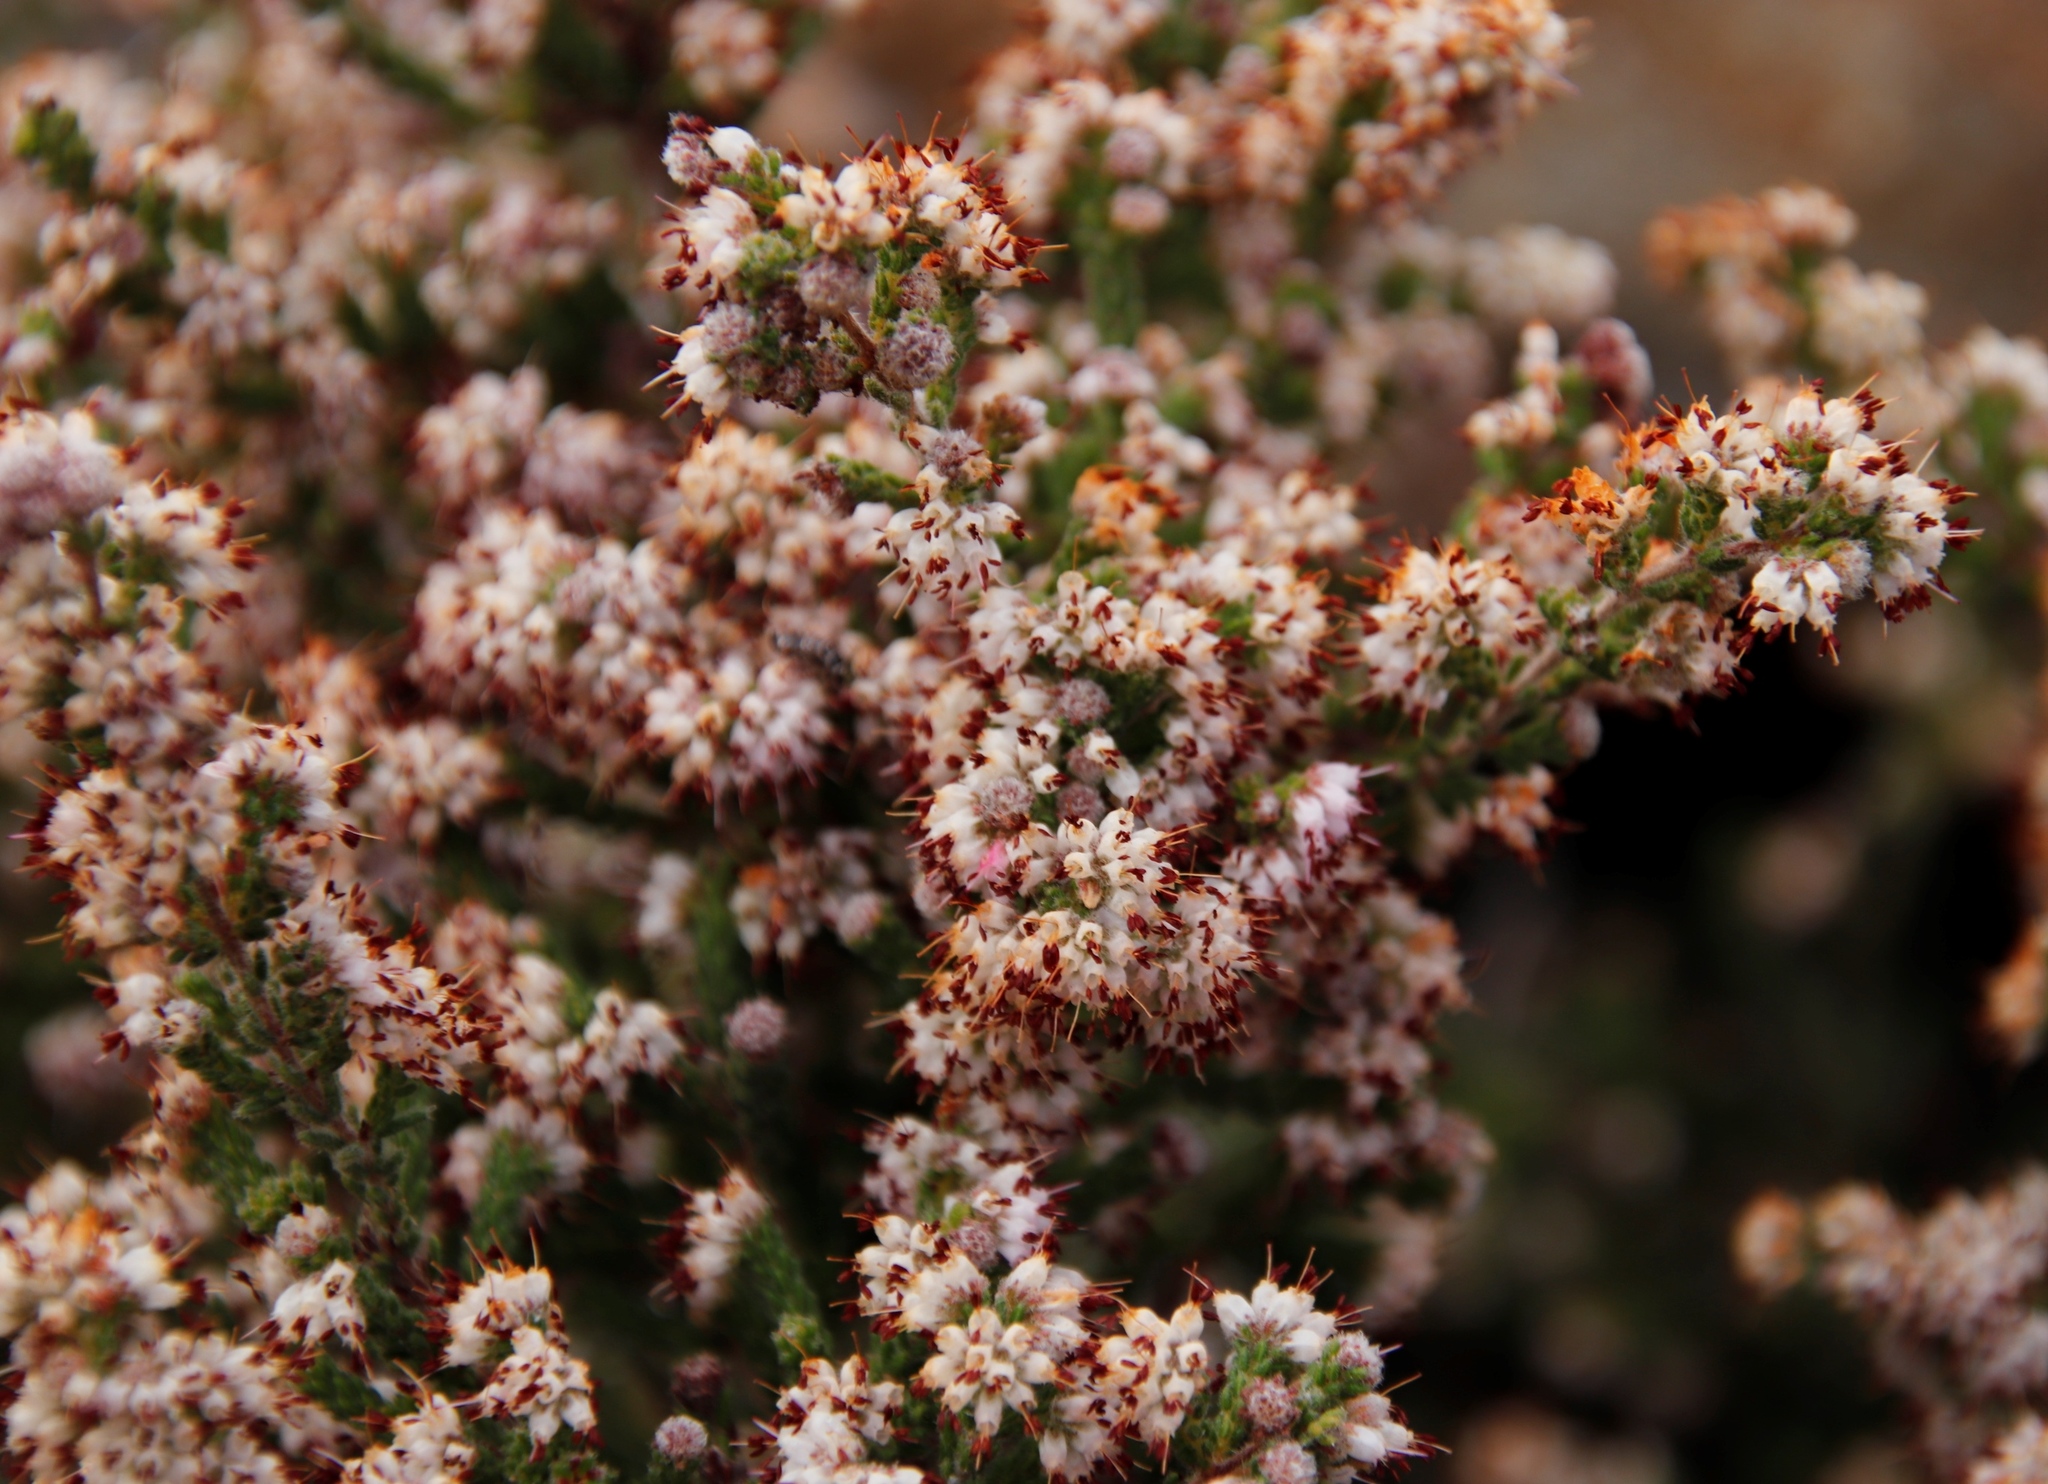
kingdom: Plantae
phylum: Tracheophyta
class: Magnoliopsida
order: Ericales
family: Ericaceae
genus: Erica
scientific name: Erica ericoides
